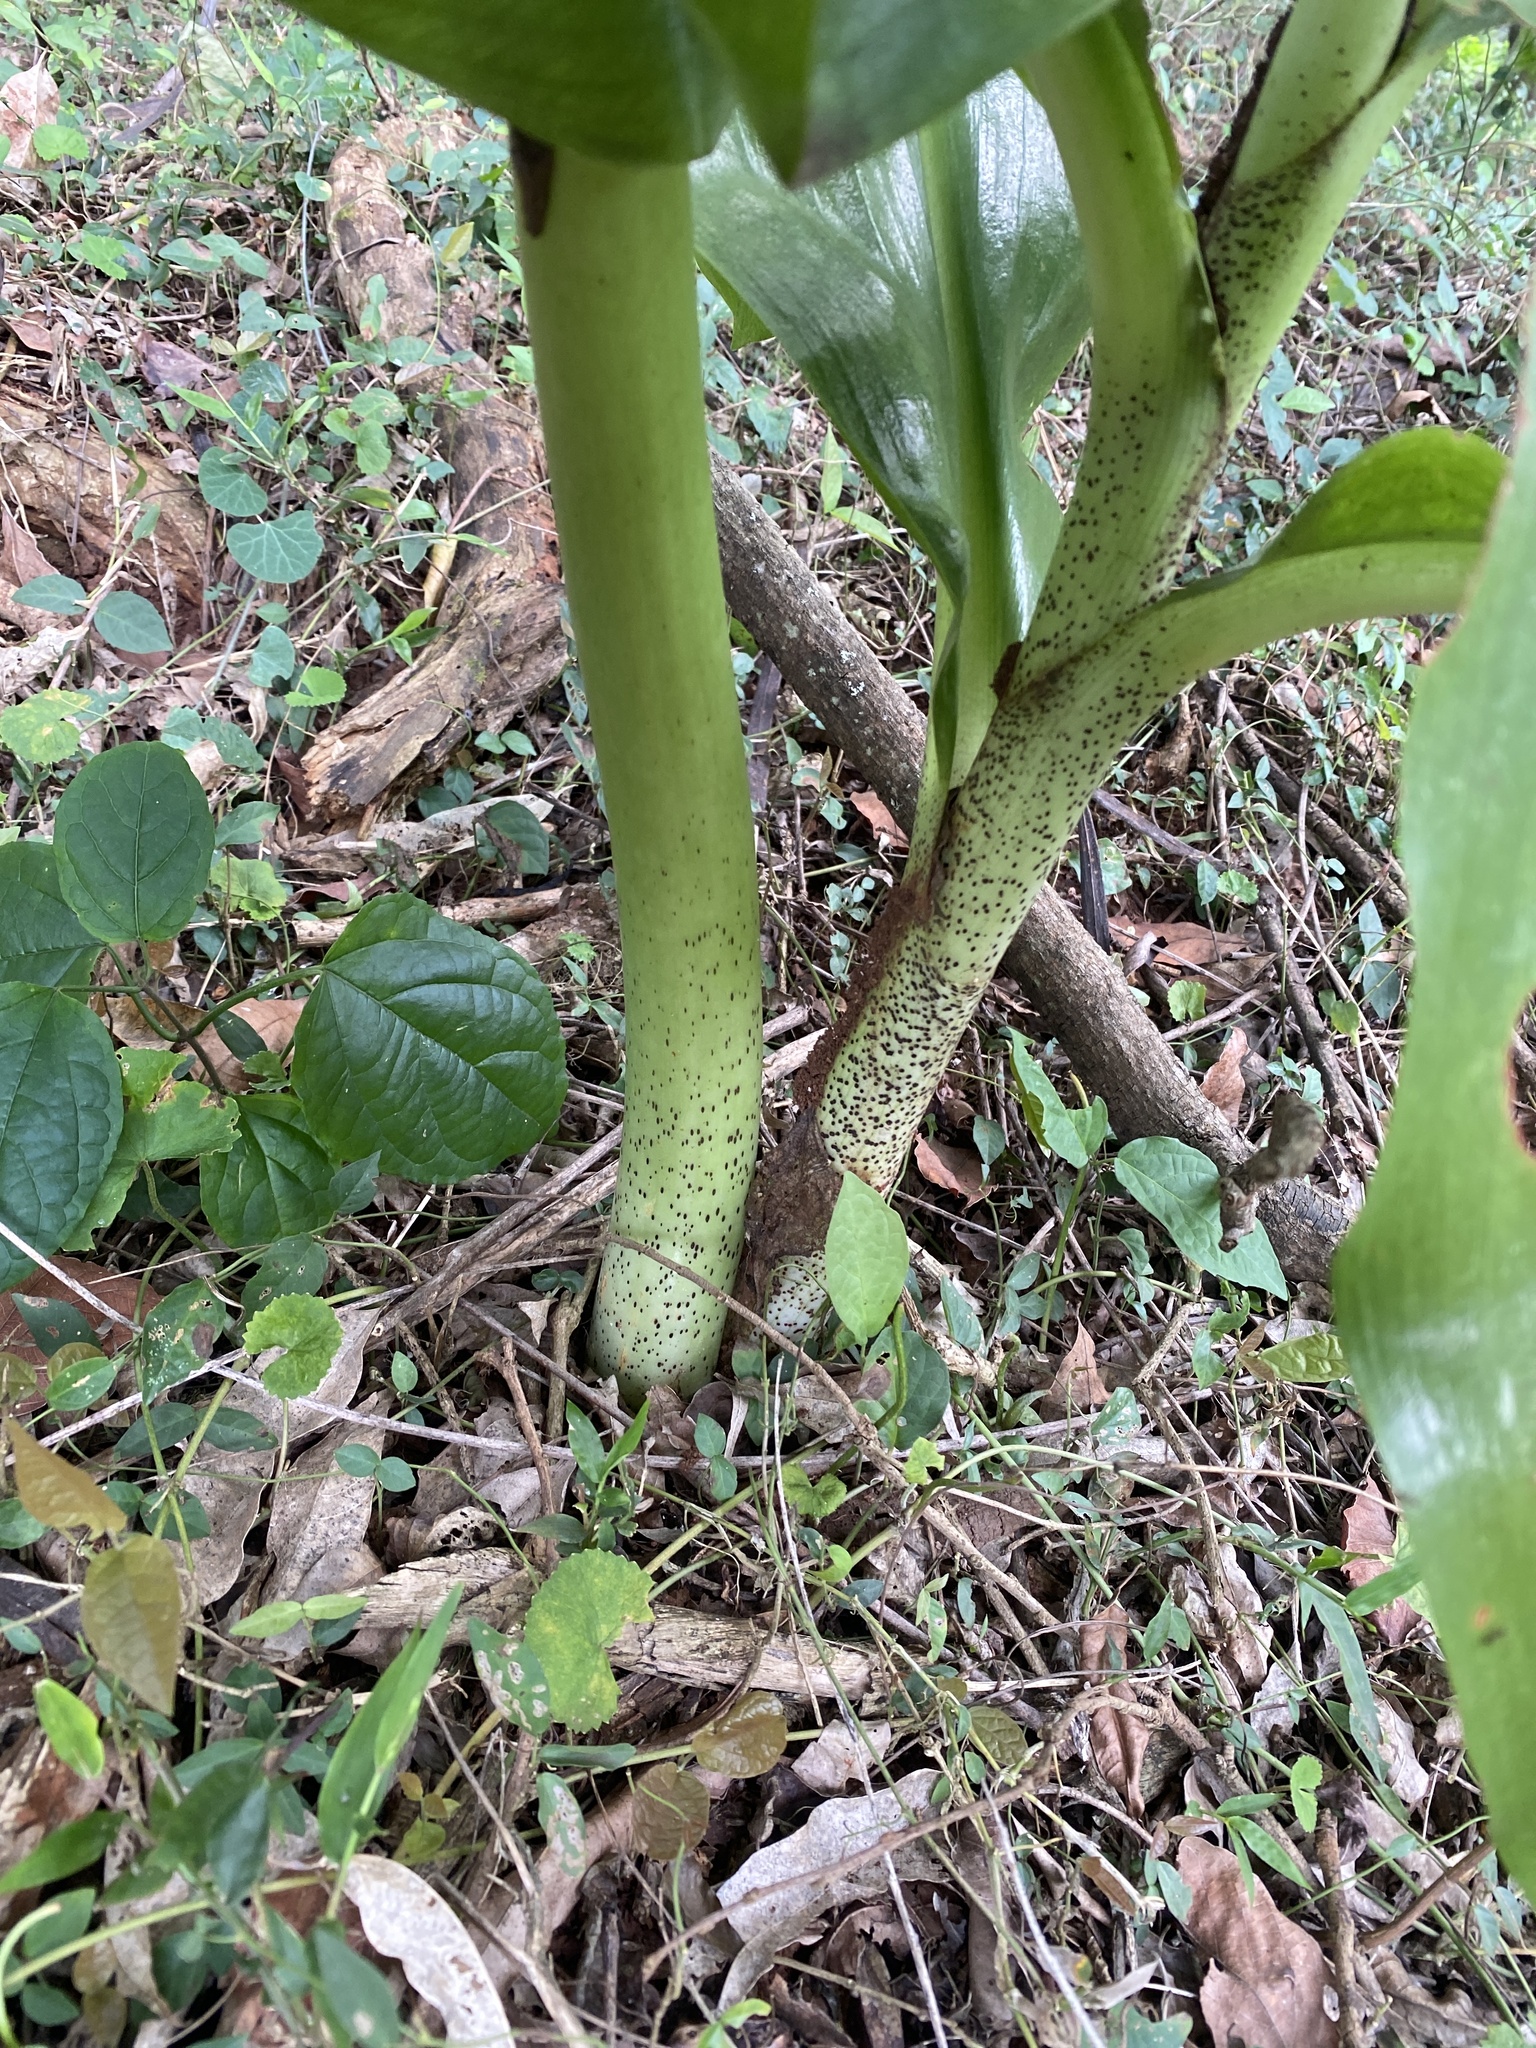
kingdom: Plantae
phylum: Tracheophyta
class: Liliopsida
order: Asparagales
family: Amaryllidaceae
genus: Scadoxus
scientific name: Scadoxus puniceus
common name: Royal-paintbrush
